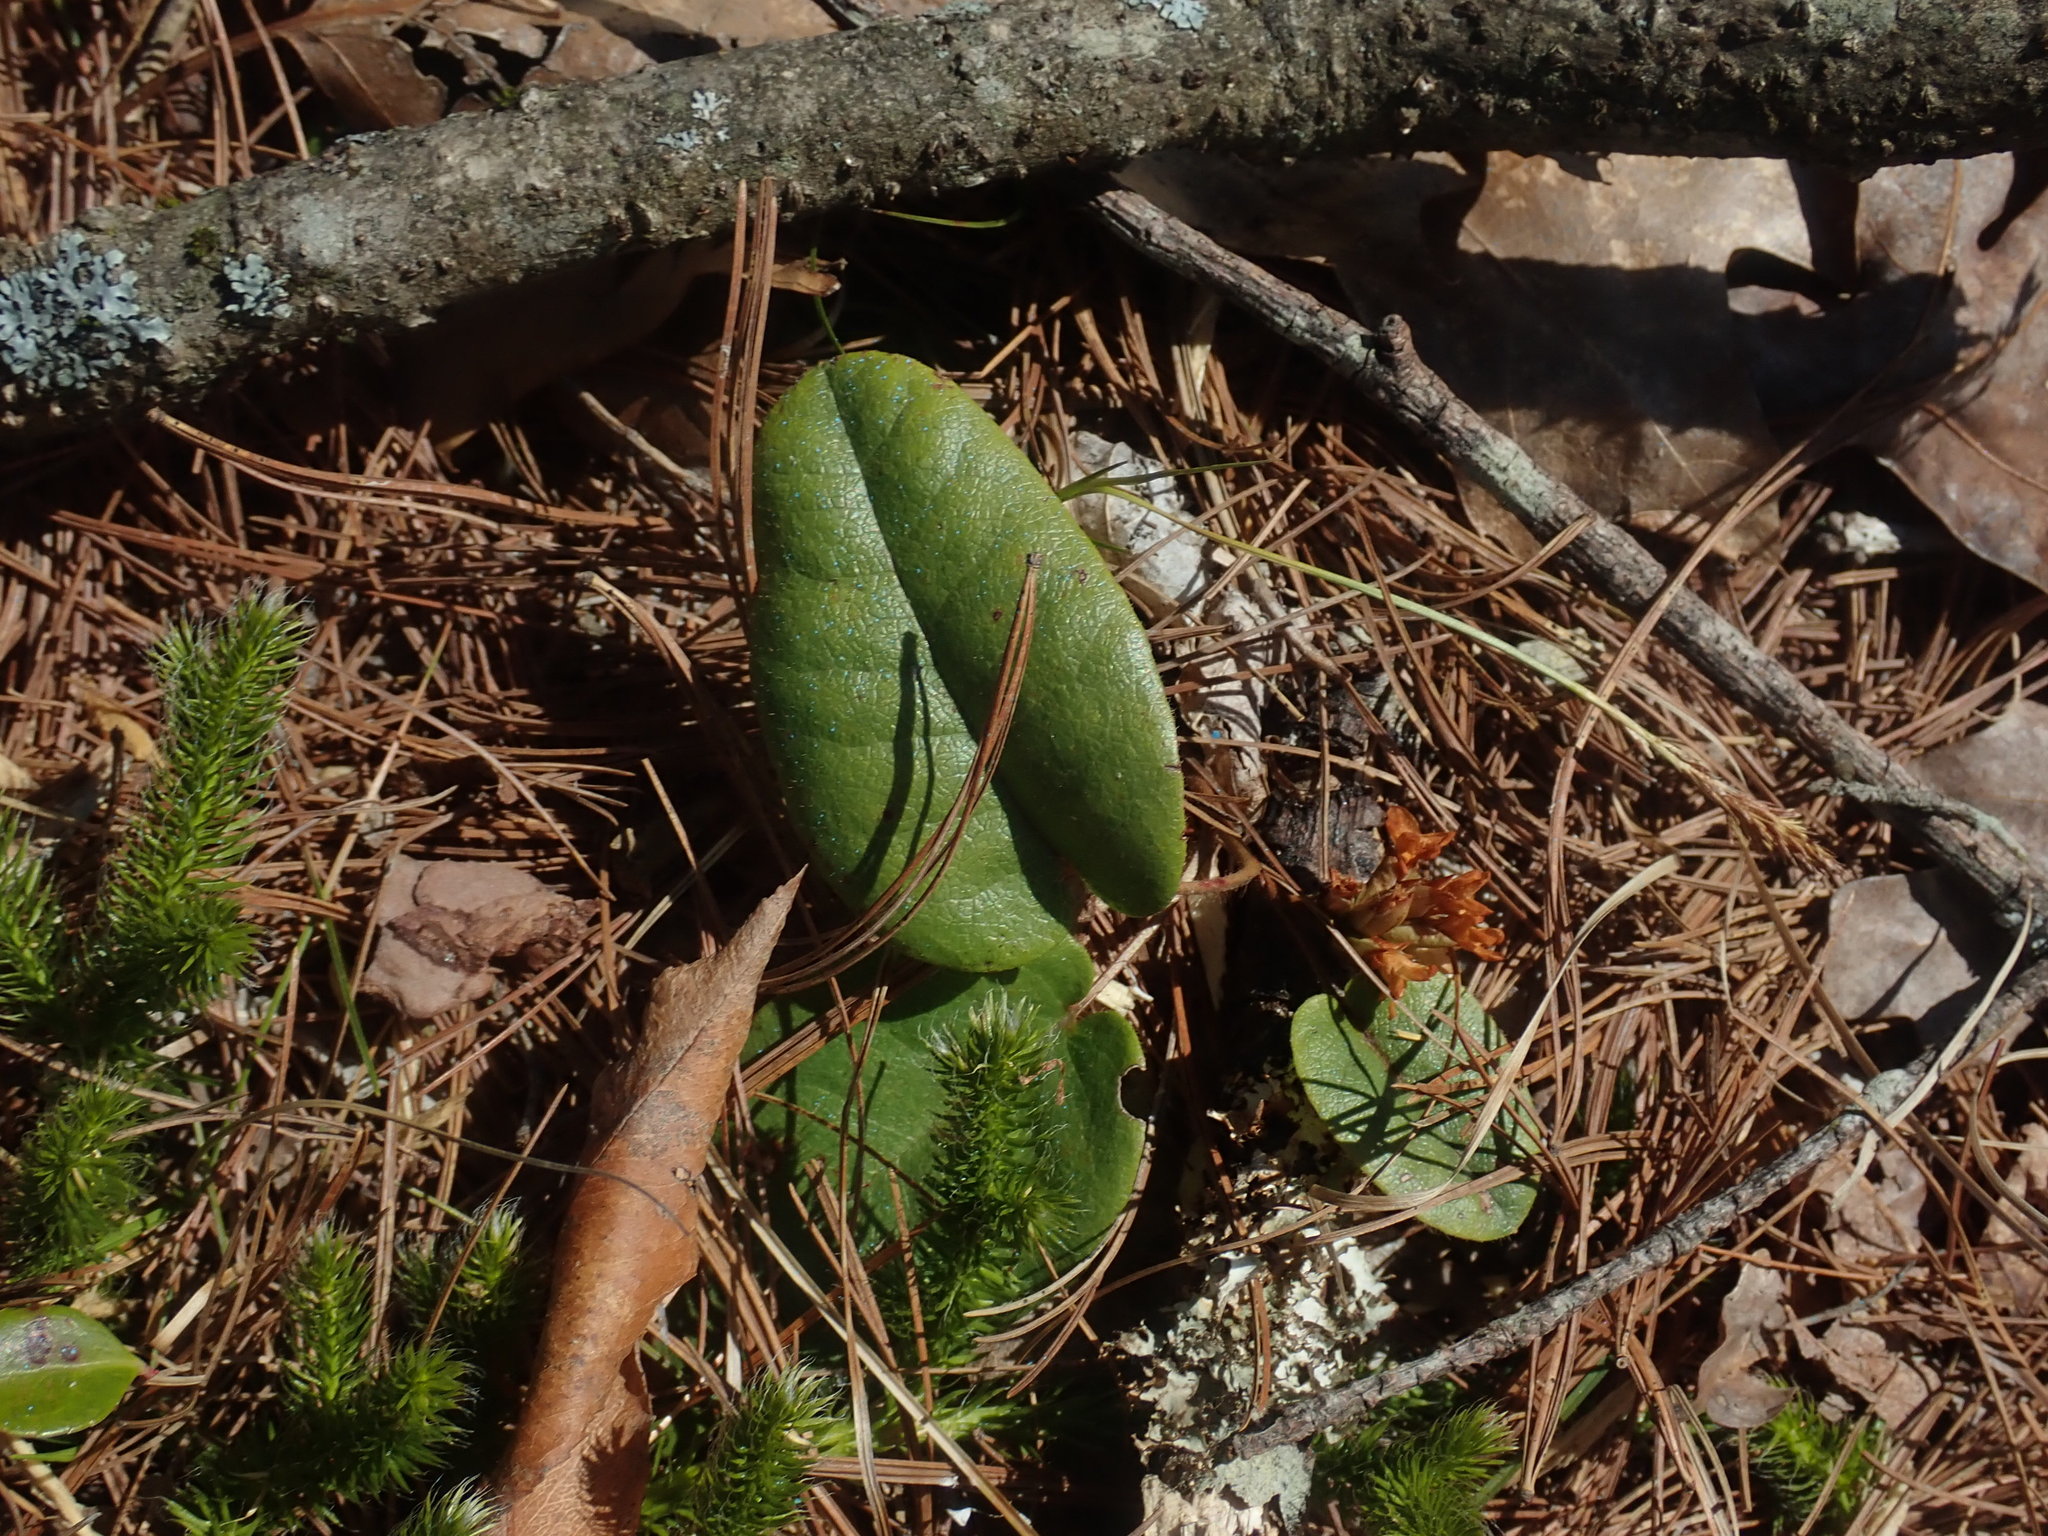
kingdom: Plantae
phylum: Tracheophyta
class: Magnoliopsida
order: Ericales
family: Ericaceae
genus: Epigaea
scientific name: Epigaea repens
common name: Gravelroot
